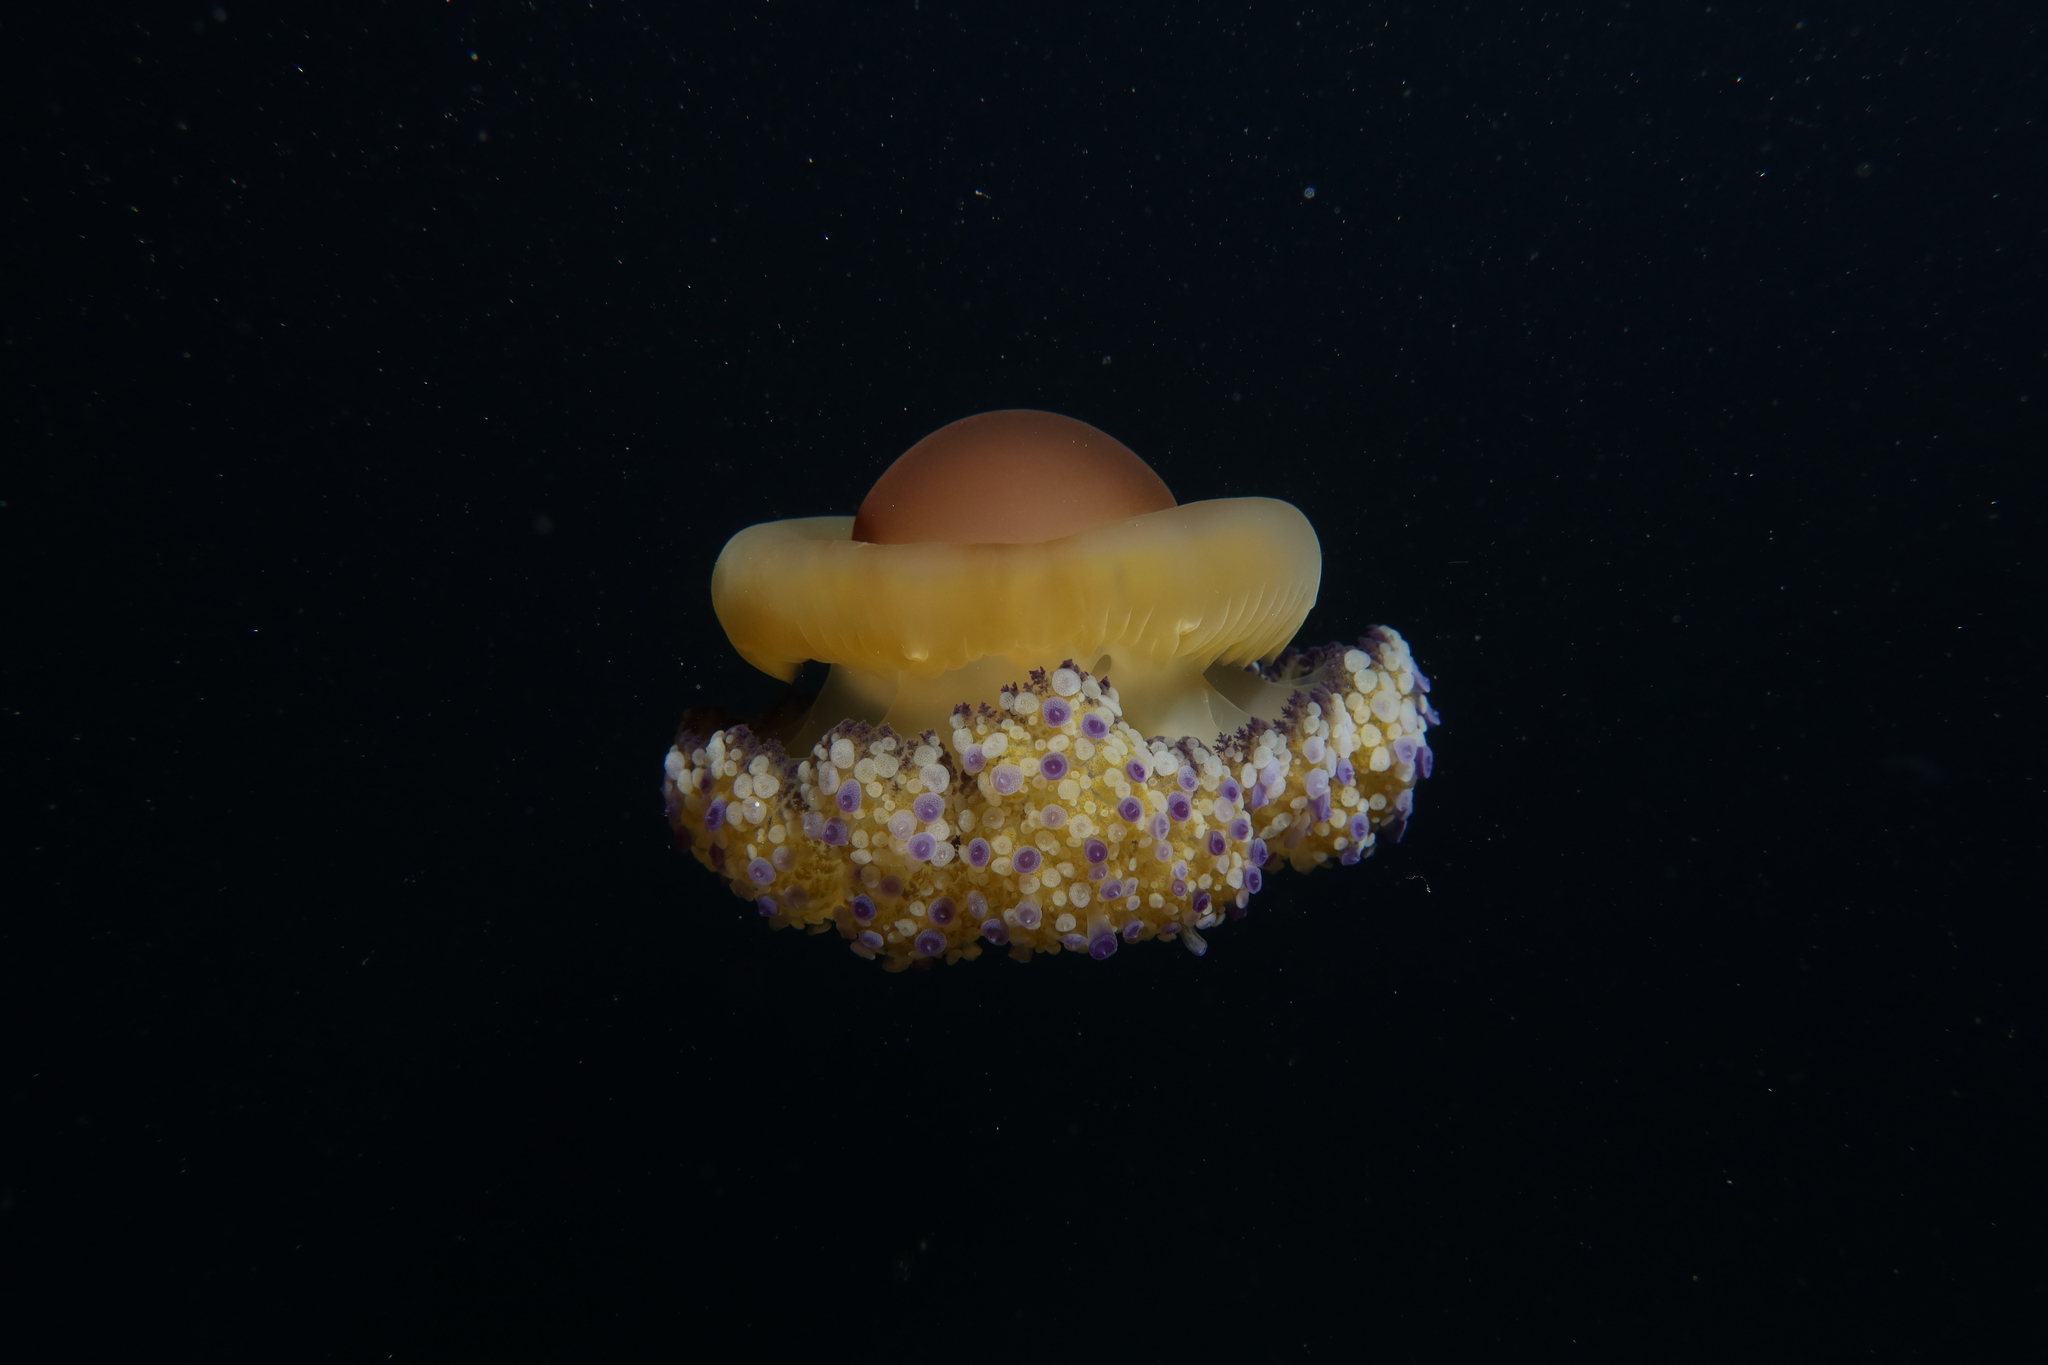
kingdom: Animalia
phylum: Cnidaria
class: Scyphozoa
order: Rhizostomeae
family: Cepheidae
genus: Cotylorhiza
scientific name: Cotylorhiza tuberculata
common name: Mediterranean jelly
